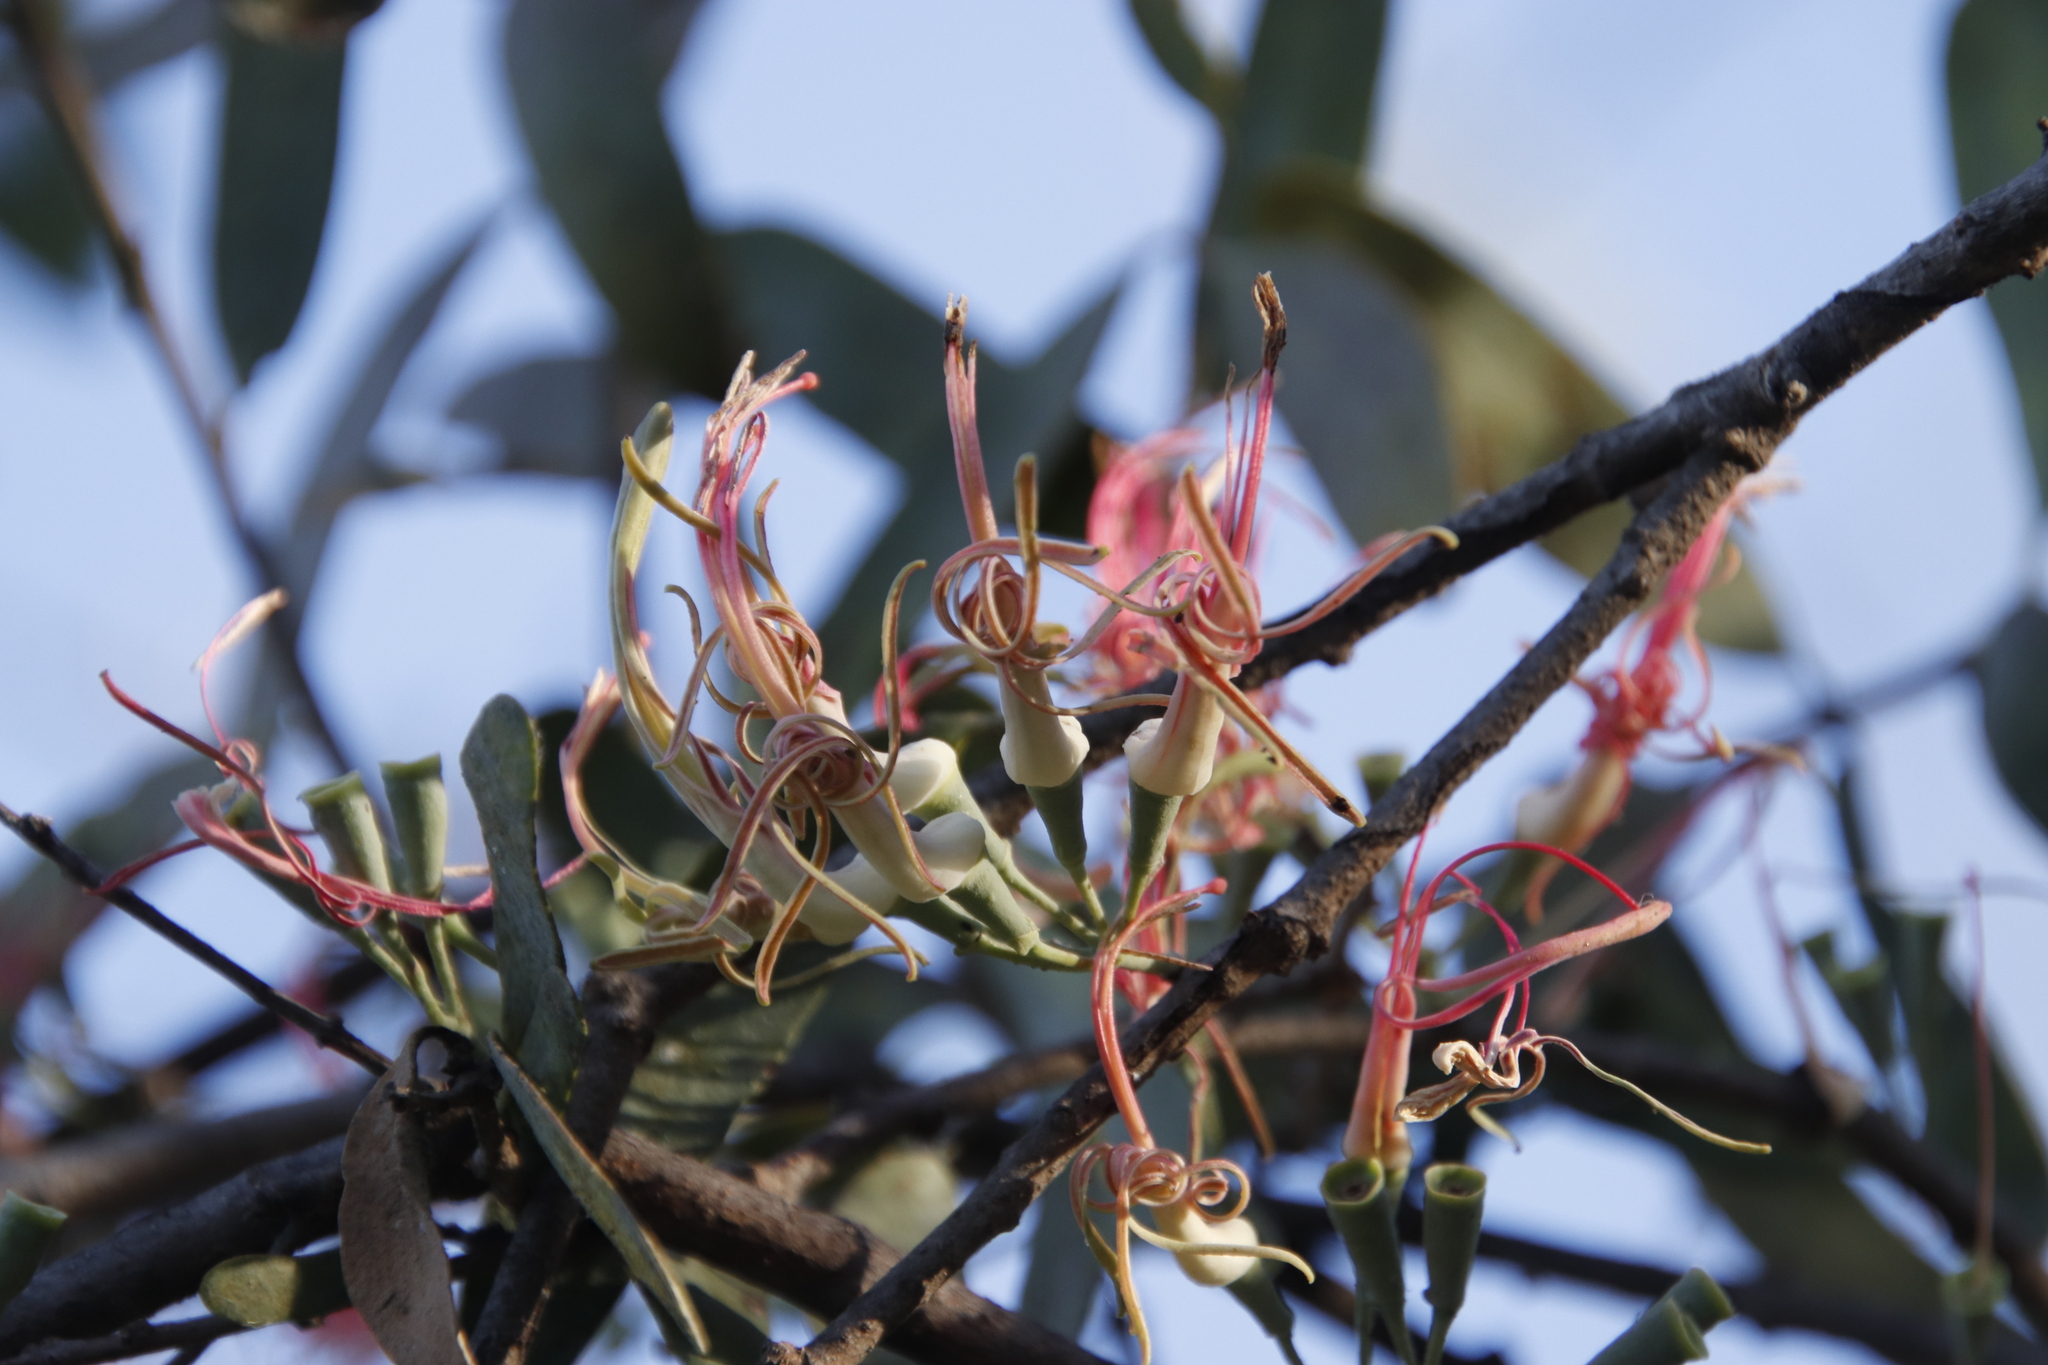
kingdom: Plantae
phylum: Tracheophyta
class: Magnoliopsida
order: Santalales
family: Loranthaceae
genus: Plicosepalus
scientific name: Plicosepalus kalachariensis
